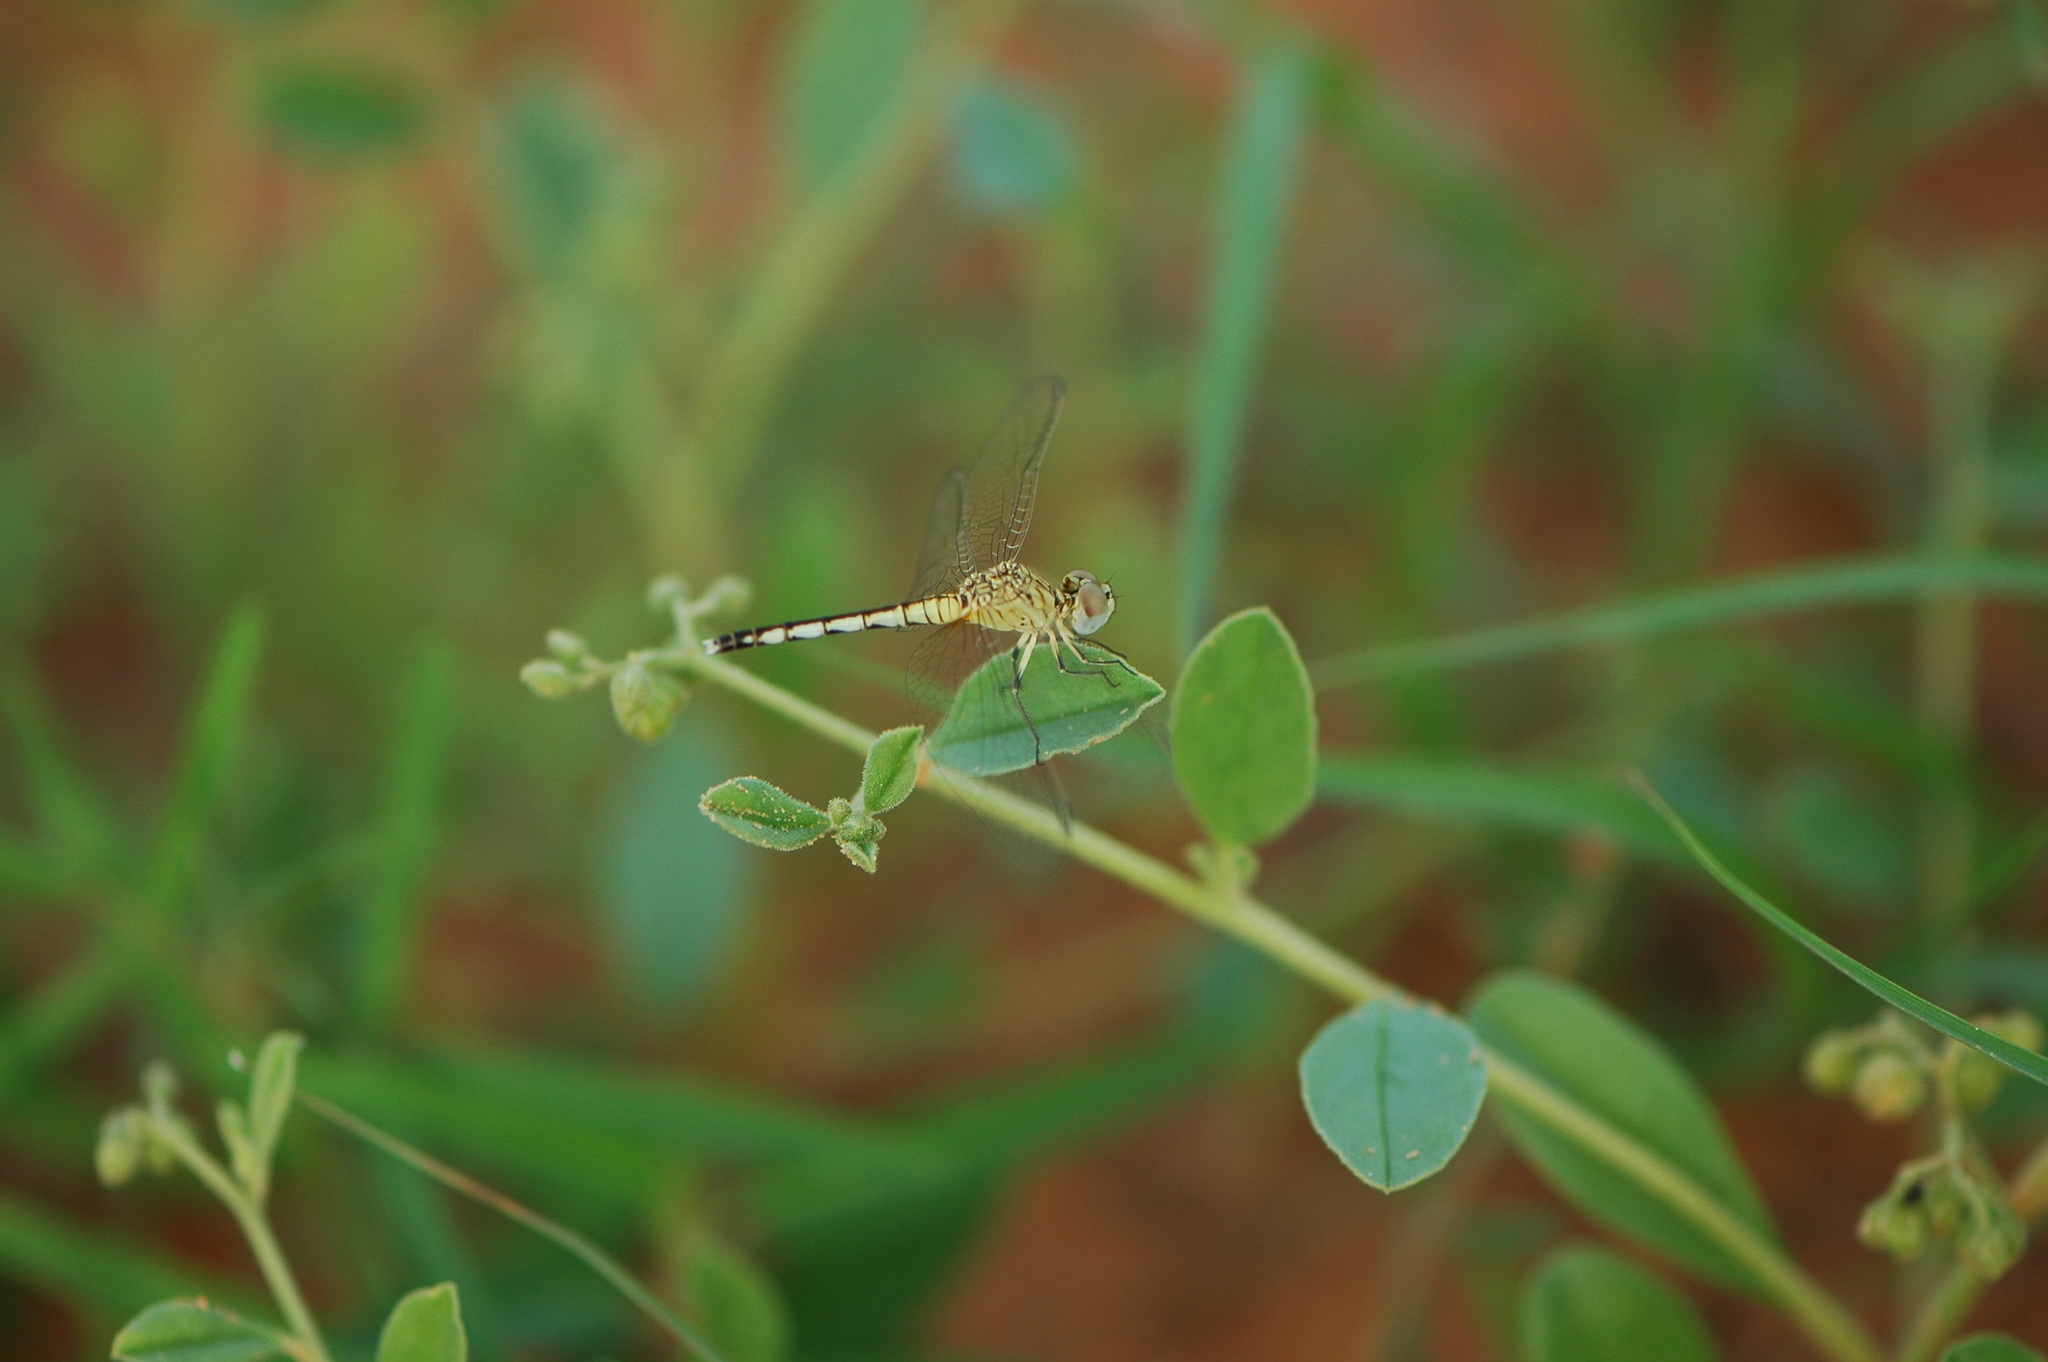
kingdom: Animalia
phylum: Arthropoda
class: Insecta
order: Odonata
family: Libellulidae
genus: Diplacodes
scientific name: Diplacodes lefebvrii
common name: Black percher
